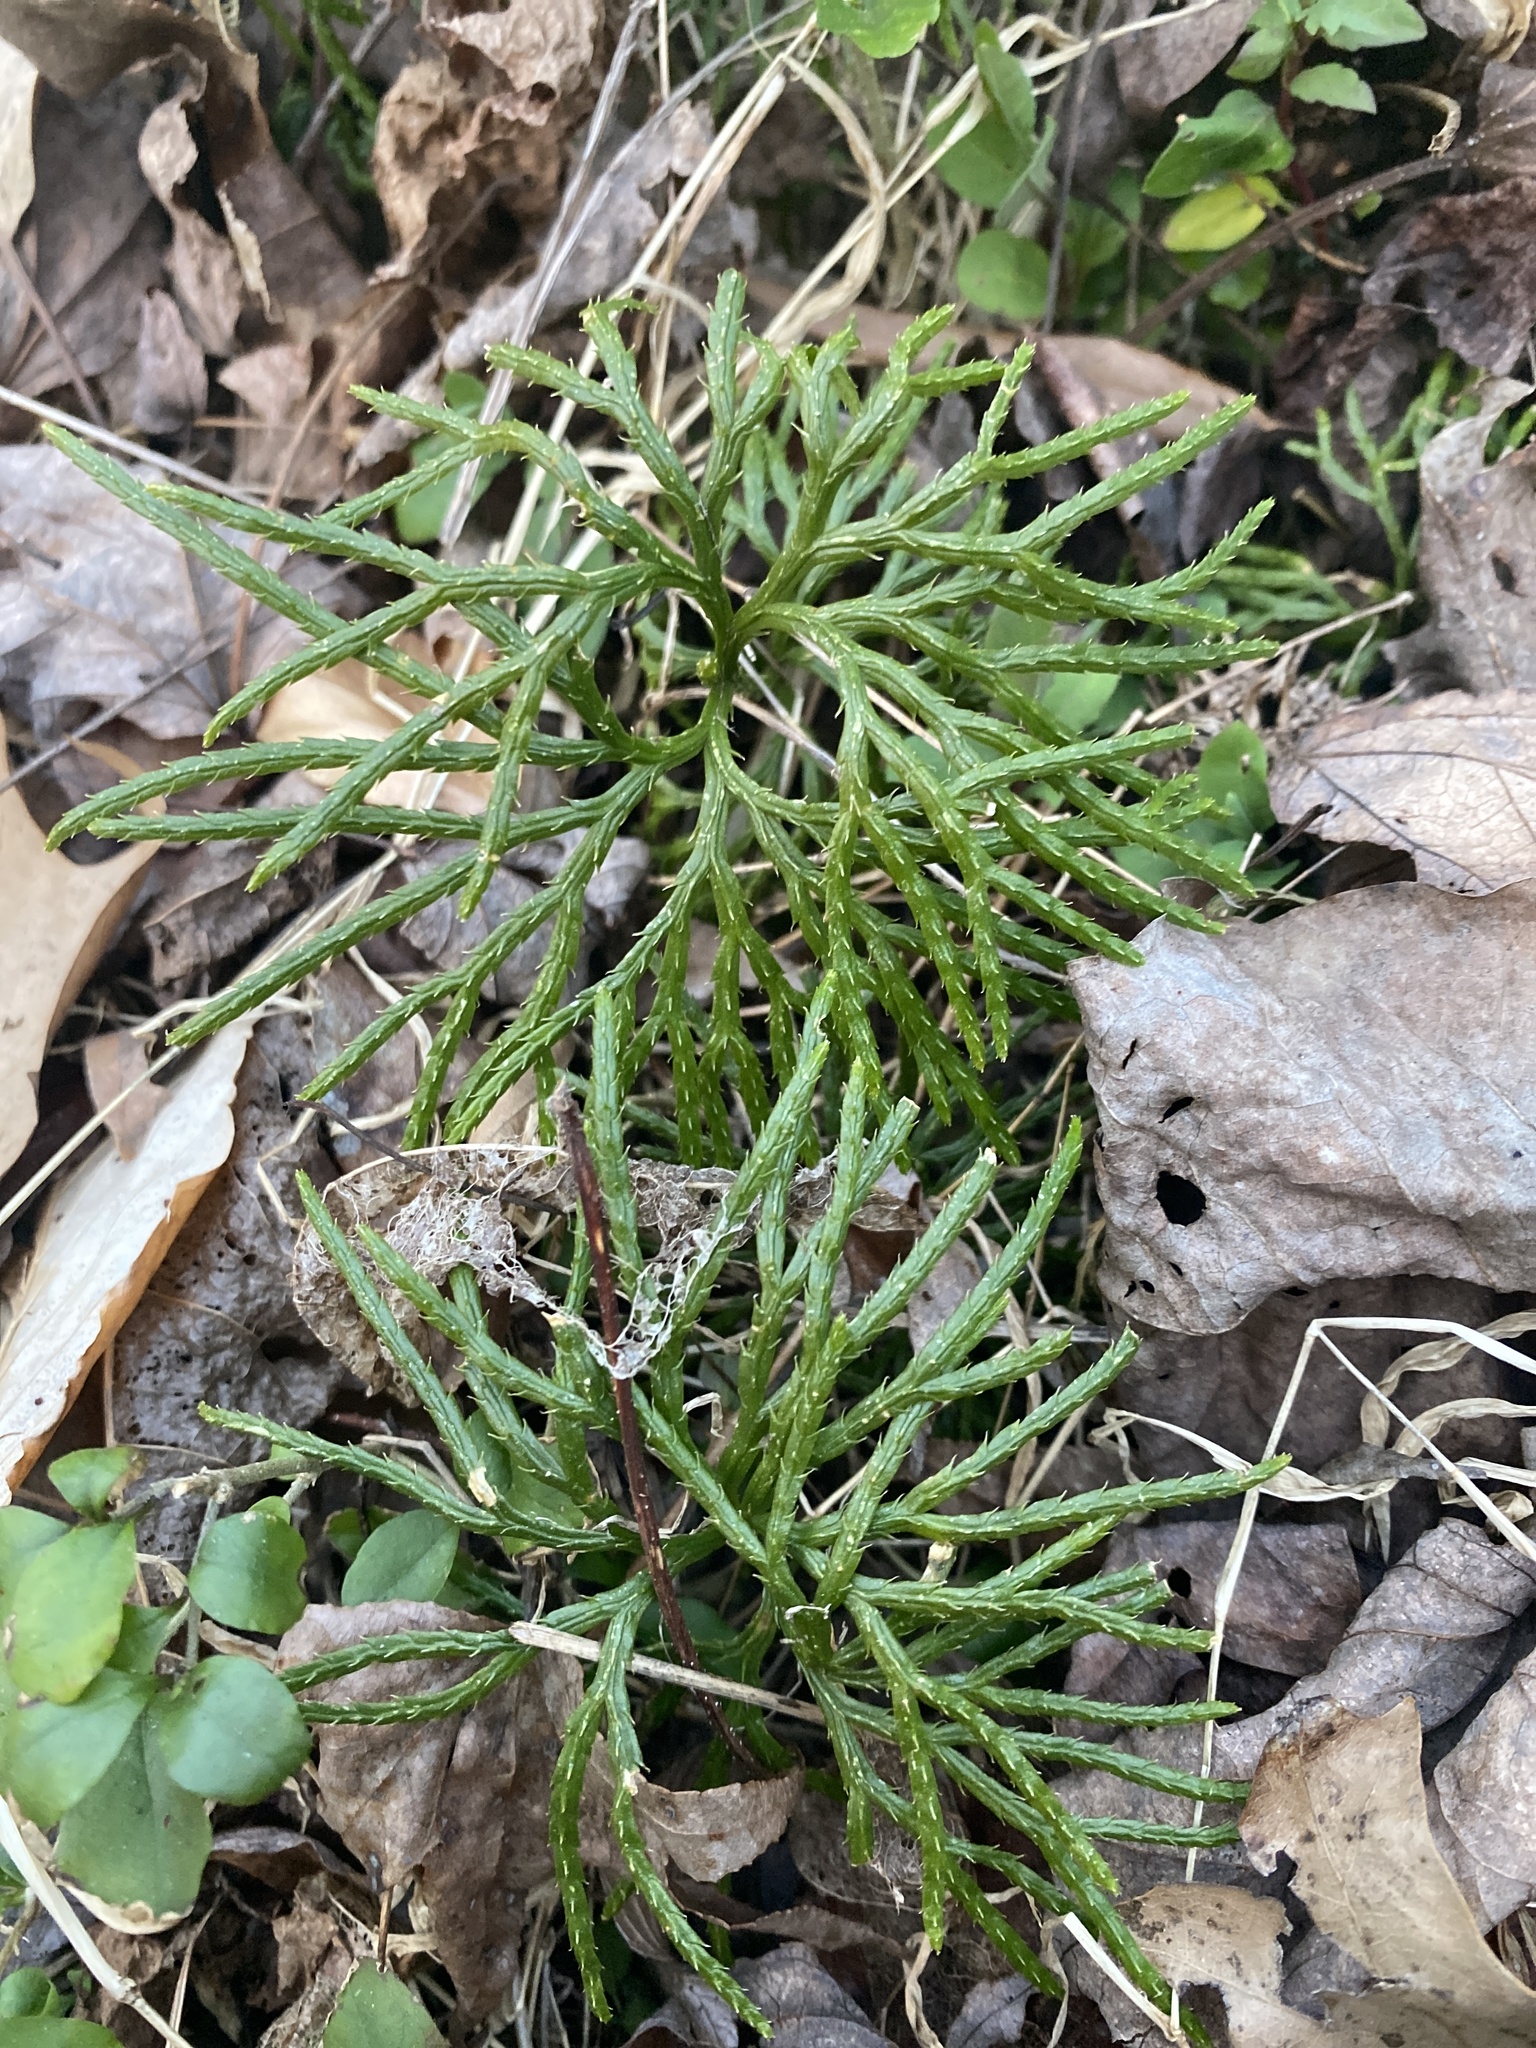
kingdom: Plantae
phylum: Tracheophyta
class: Lycopodiopsida
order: Lycopodiales
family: Lycopodiaceae
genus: Diphasiastrum
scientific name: Diphasiastrum digitatum
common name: Southern running-pine
